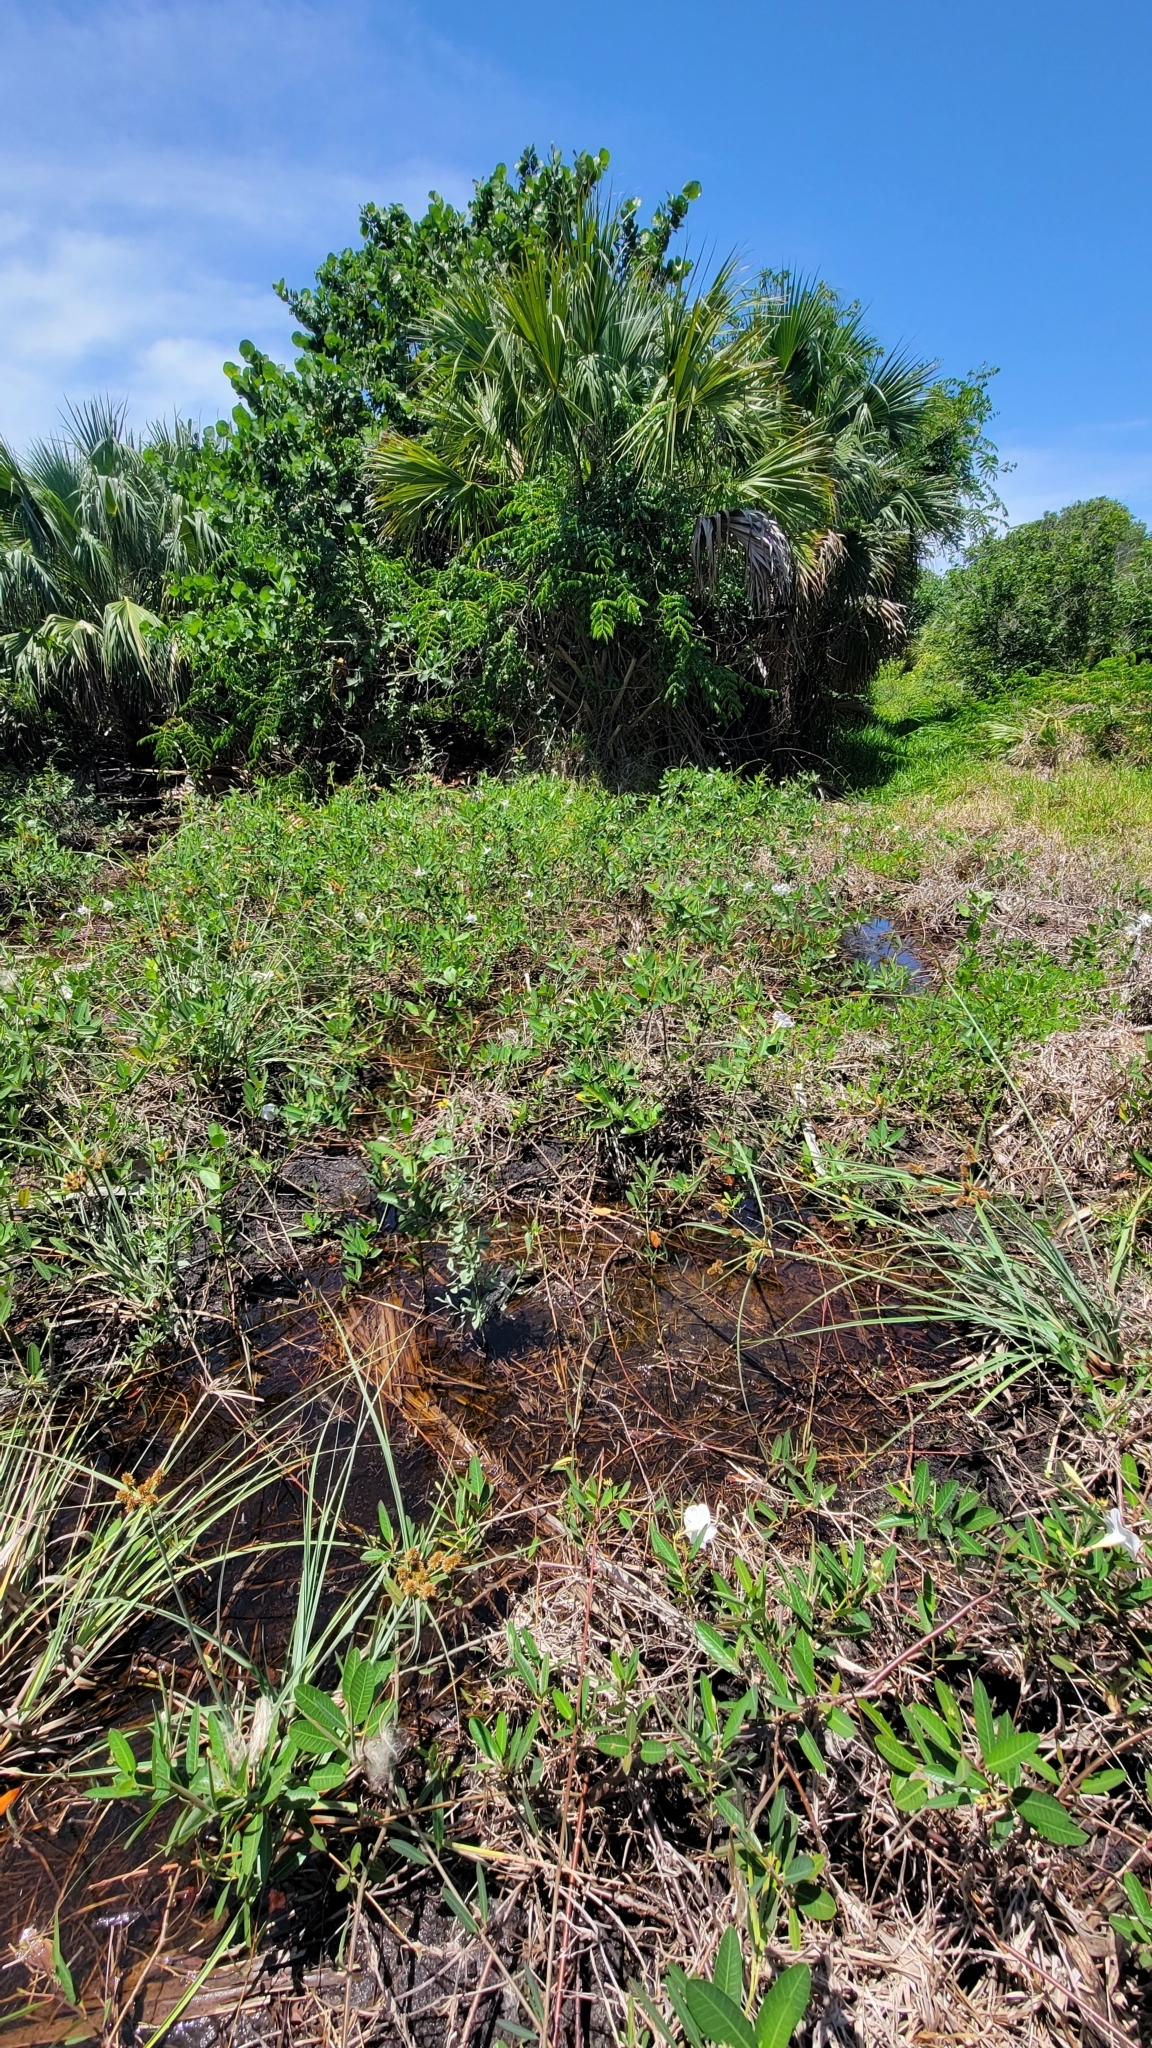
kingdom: Plantae
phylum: Tracheophyta
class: Magnoliopsida
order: Gentianales
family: Apocynaceae
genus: Rhabdadenia
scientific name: Rhabdadenia biflora
